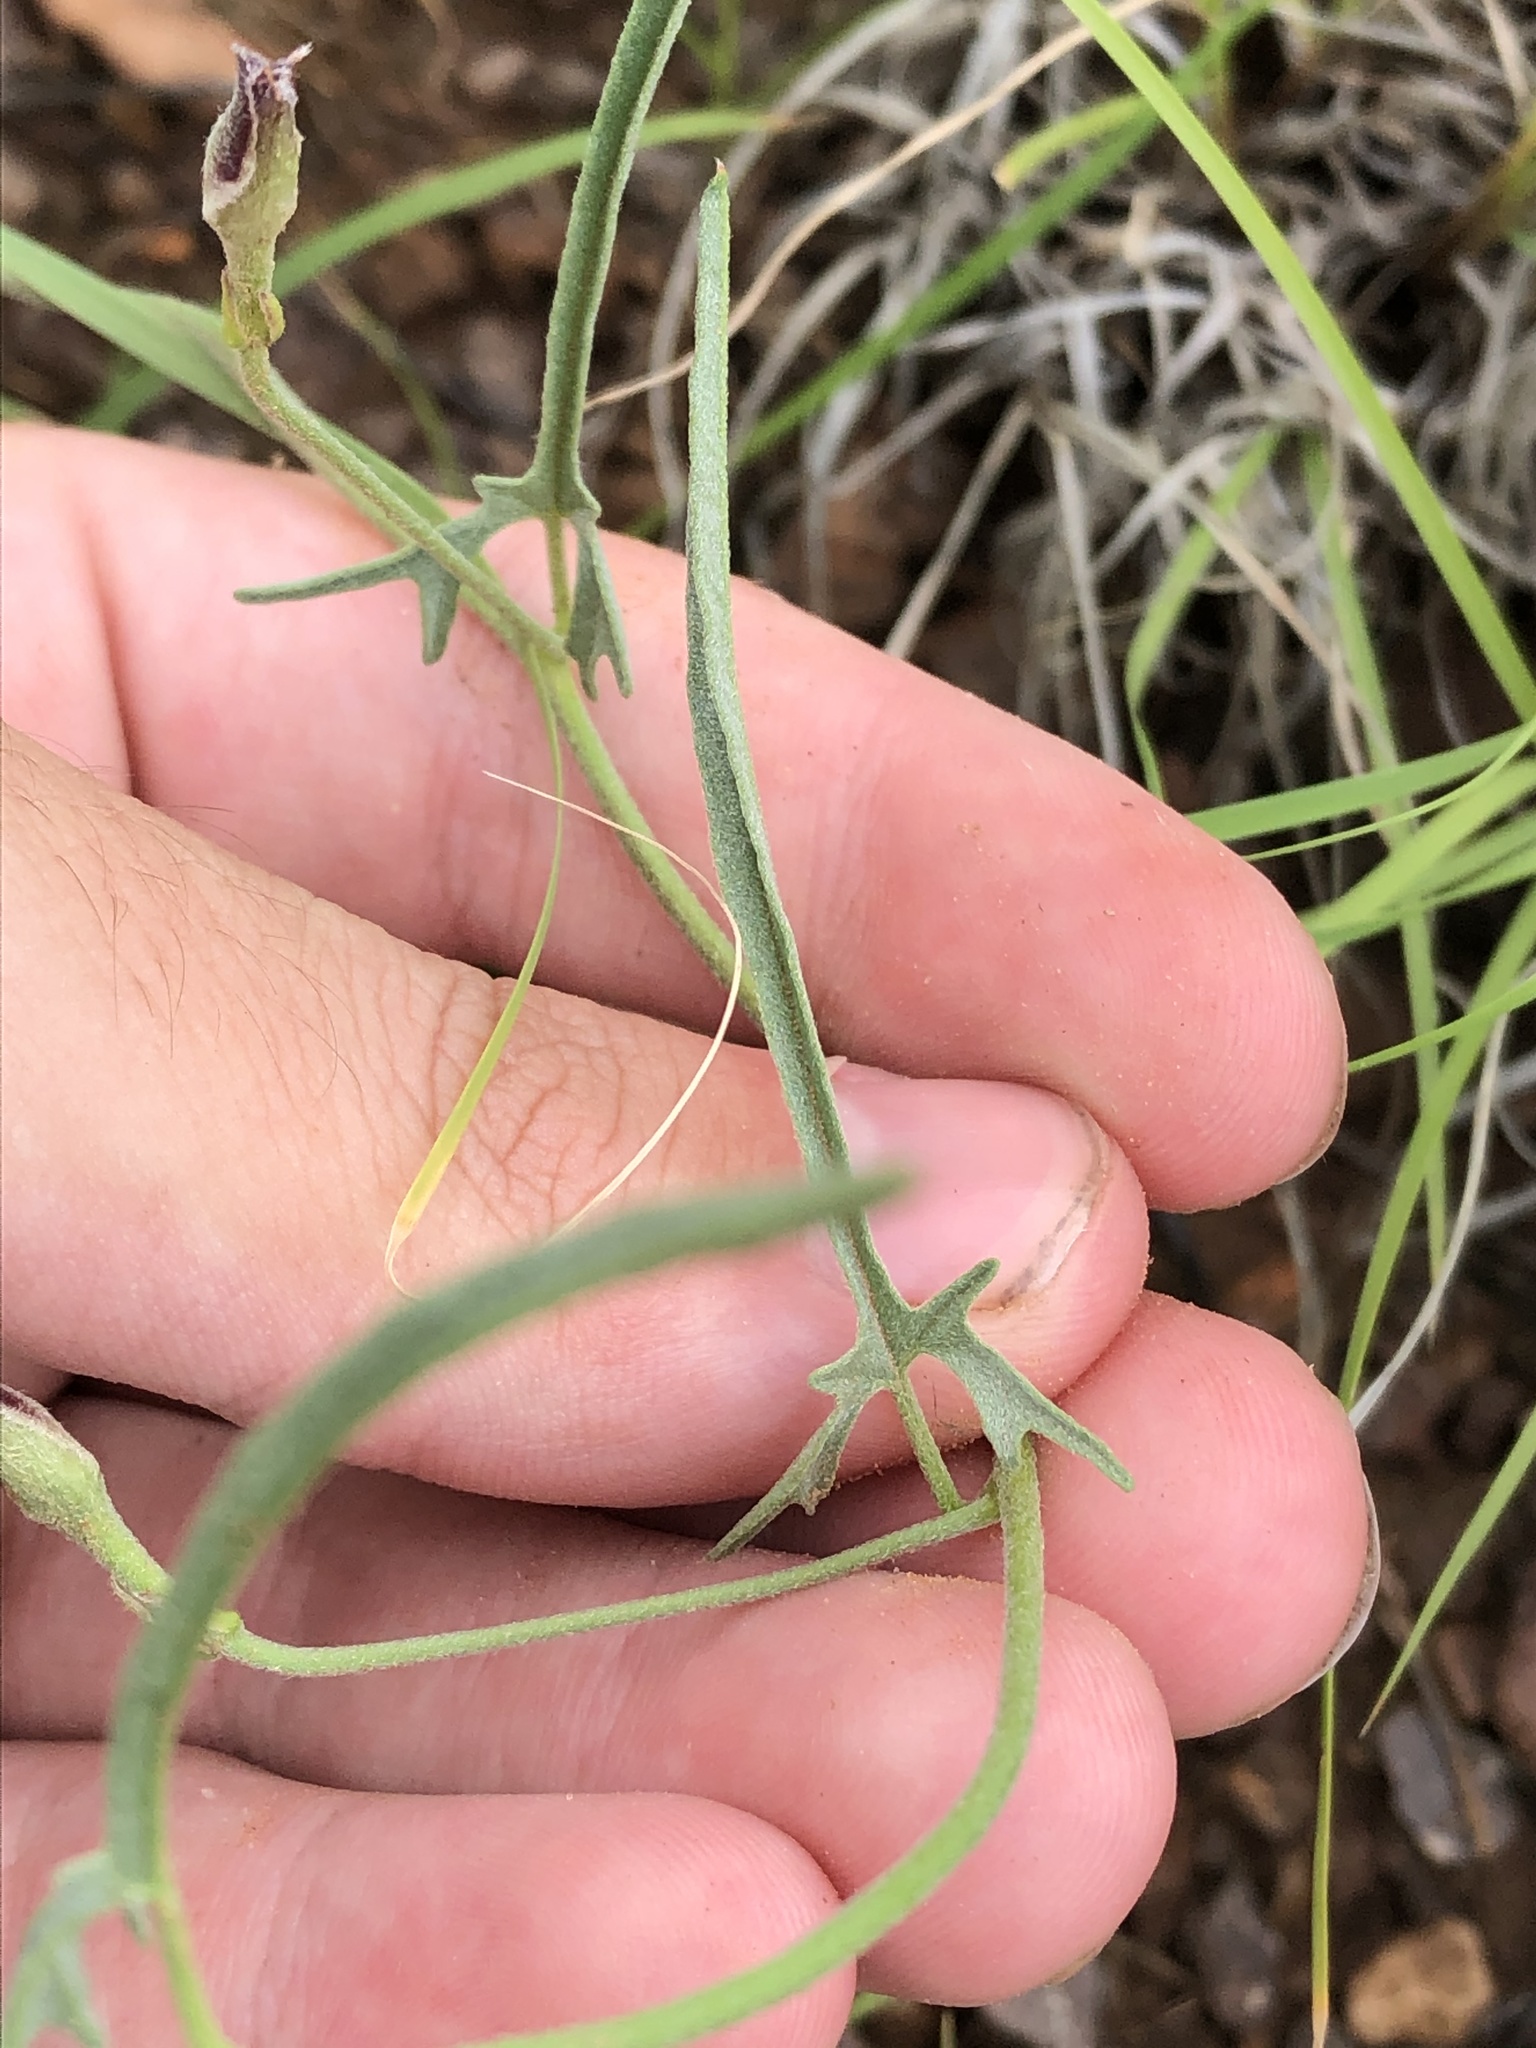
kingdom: Plantae
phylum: Tracheophyta
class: Magnoliopsida
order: Solanales
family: Convolvulaceae
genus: Convolvulus
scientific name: Convolvulus equitans
